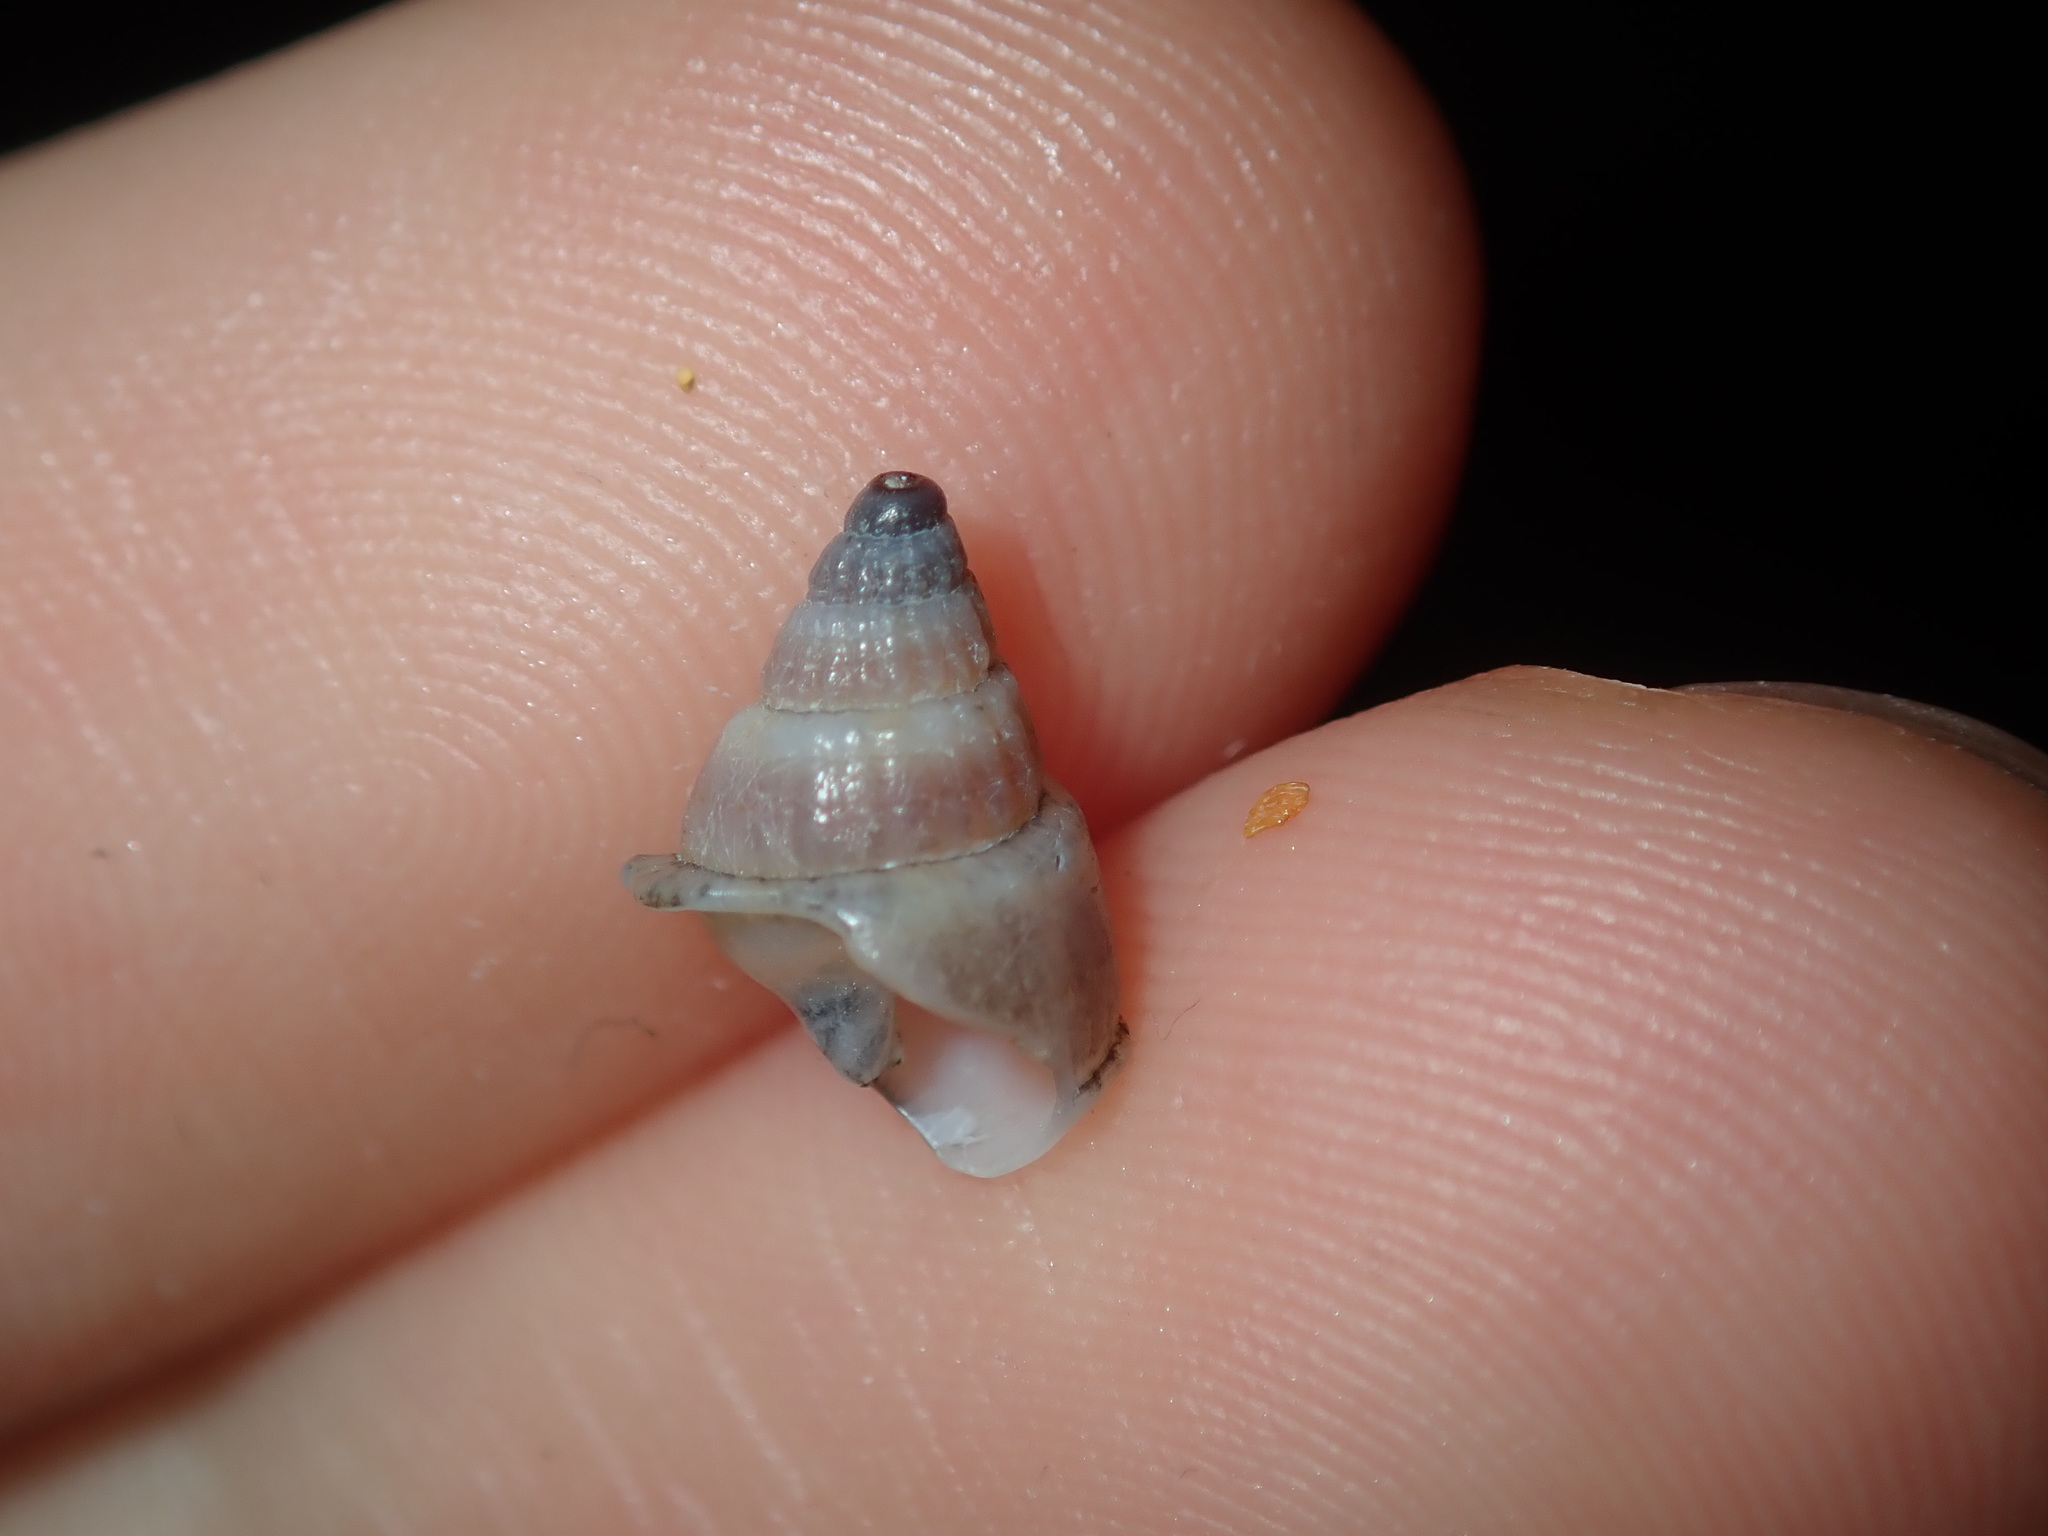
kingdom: Animalia
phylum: Mollusca
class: Gastropoda
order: Neogastropoda
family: Nassariidae
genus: Nassarius
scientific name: Nassarius particeps
